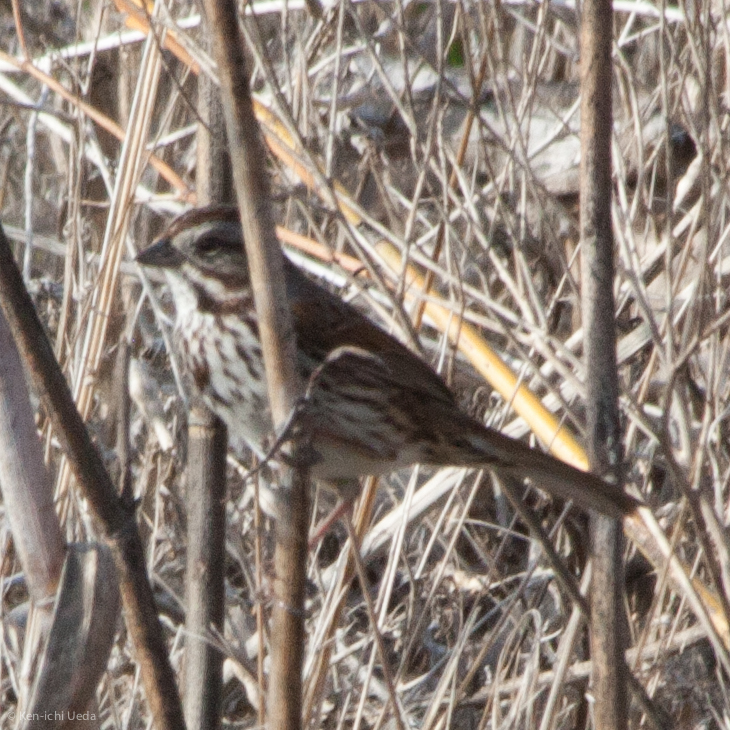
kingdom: Animalia
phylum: Chordata
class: Aves
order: Passeriformes
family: Passerellidae
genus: Melospiza
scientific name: Melospiza melodia
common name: Song sparrow
